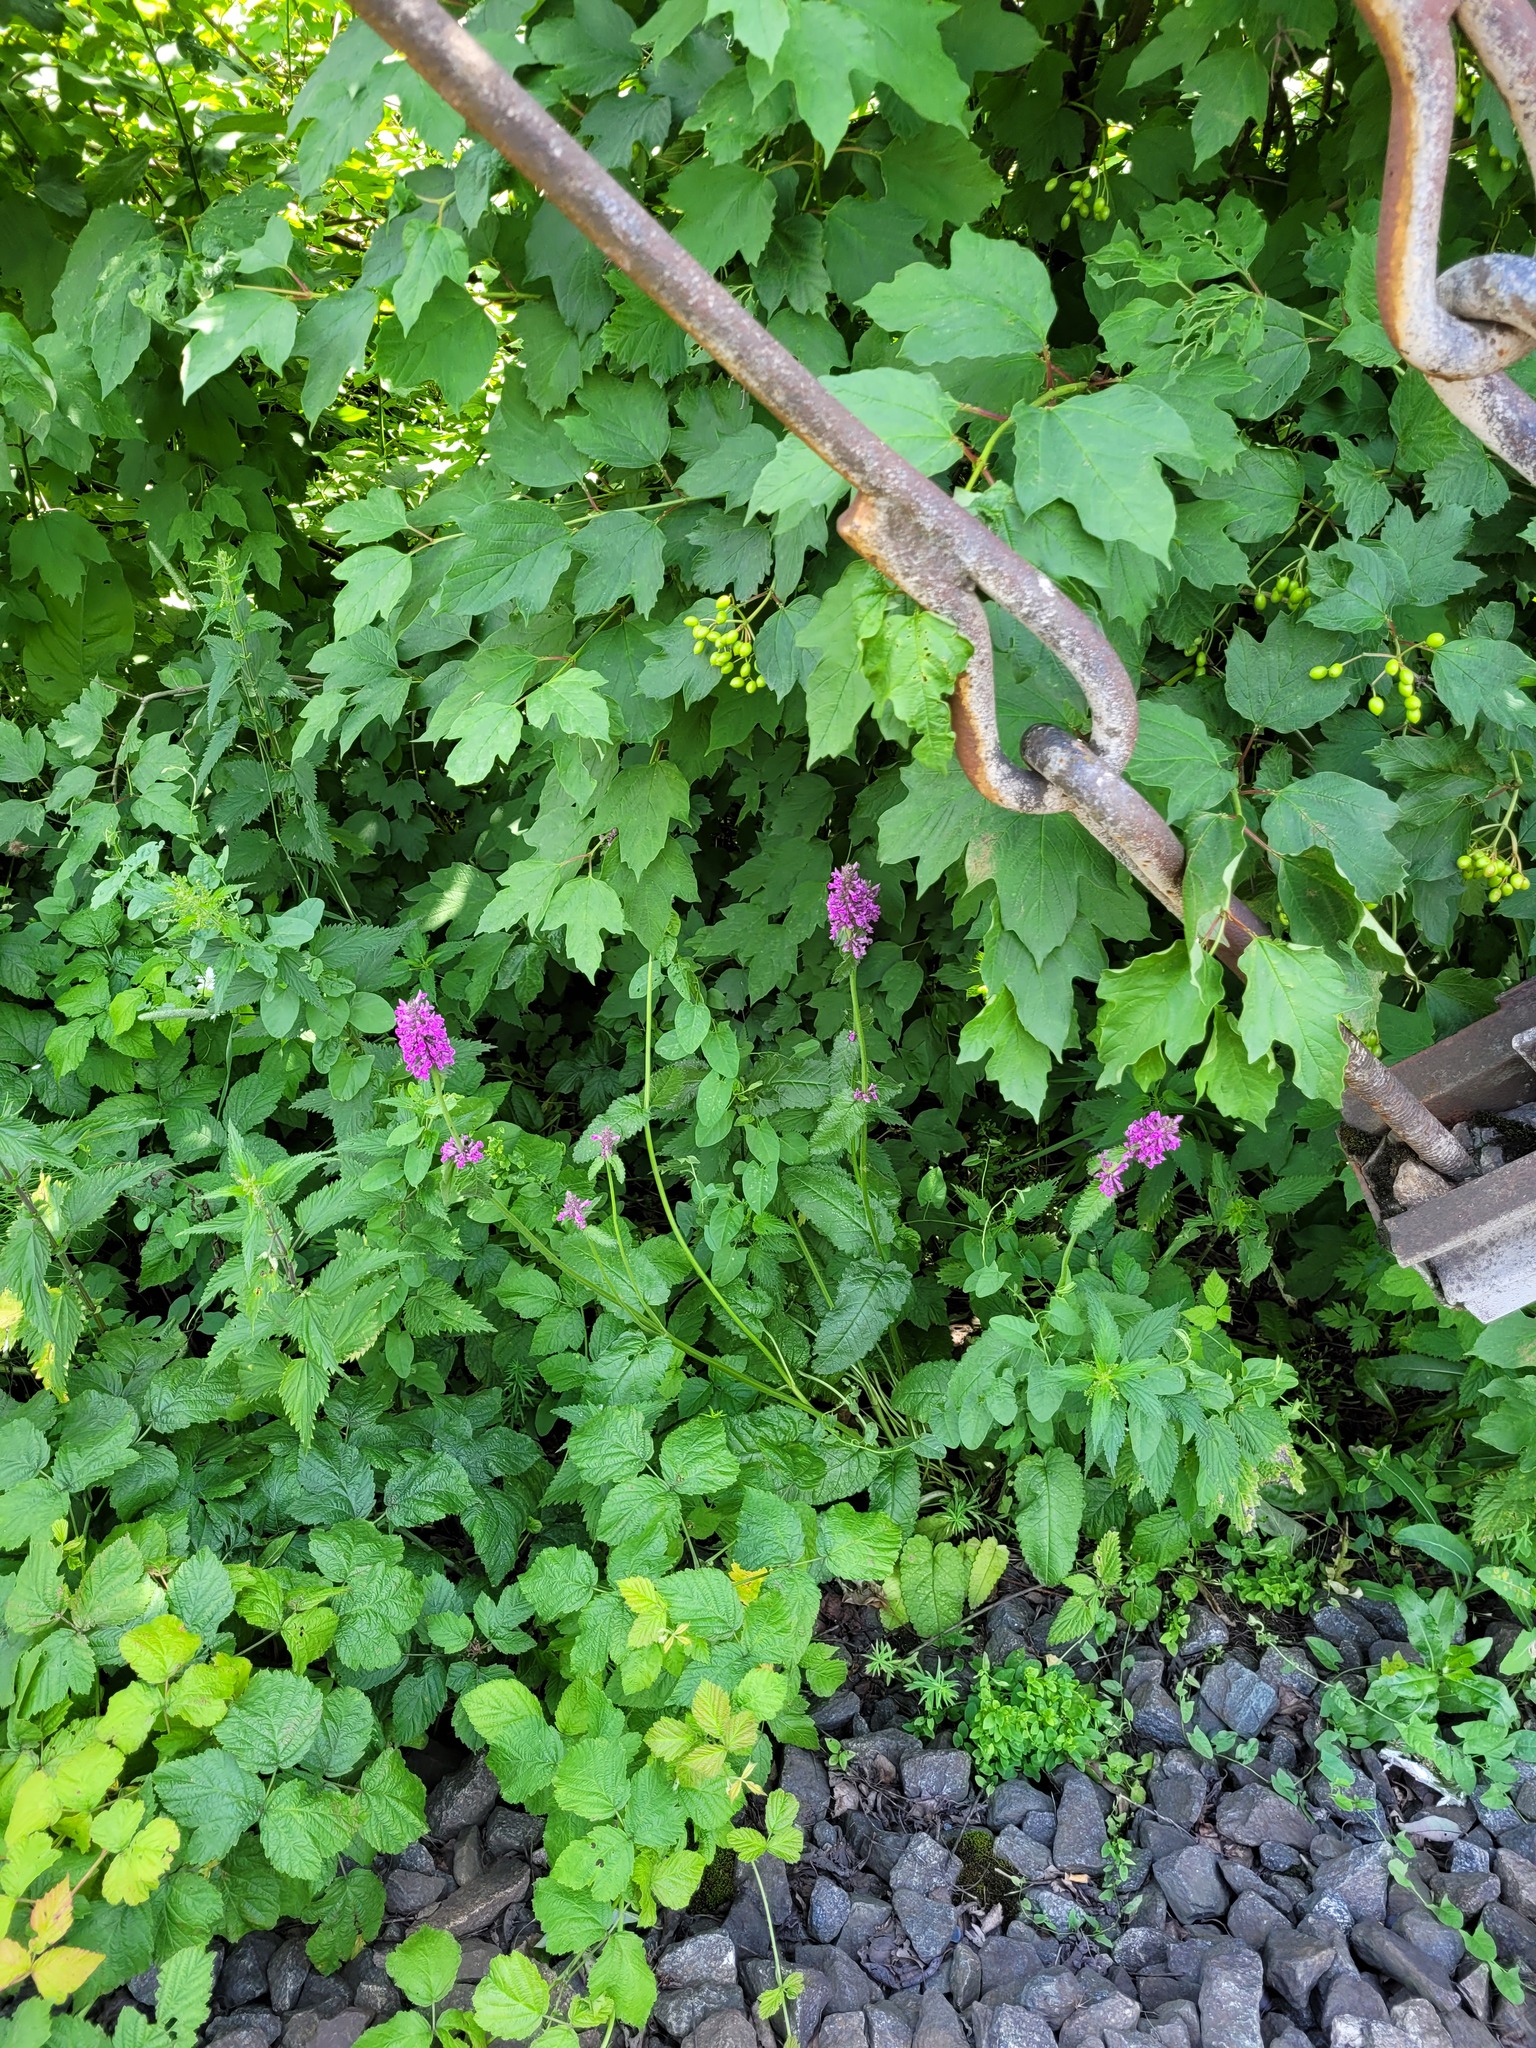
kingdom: Plantae
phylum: Tracheophyta
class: Magnoliopsida
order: Lamiales
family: Lamiaceae
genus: Betonica
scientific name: Betonica officinalis
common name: Bishop's-wort
